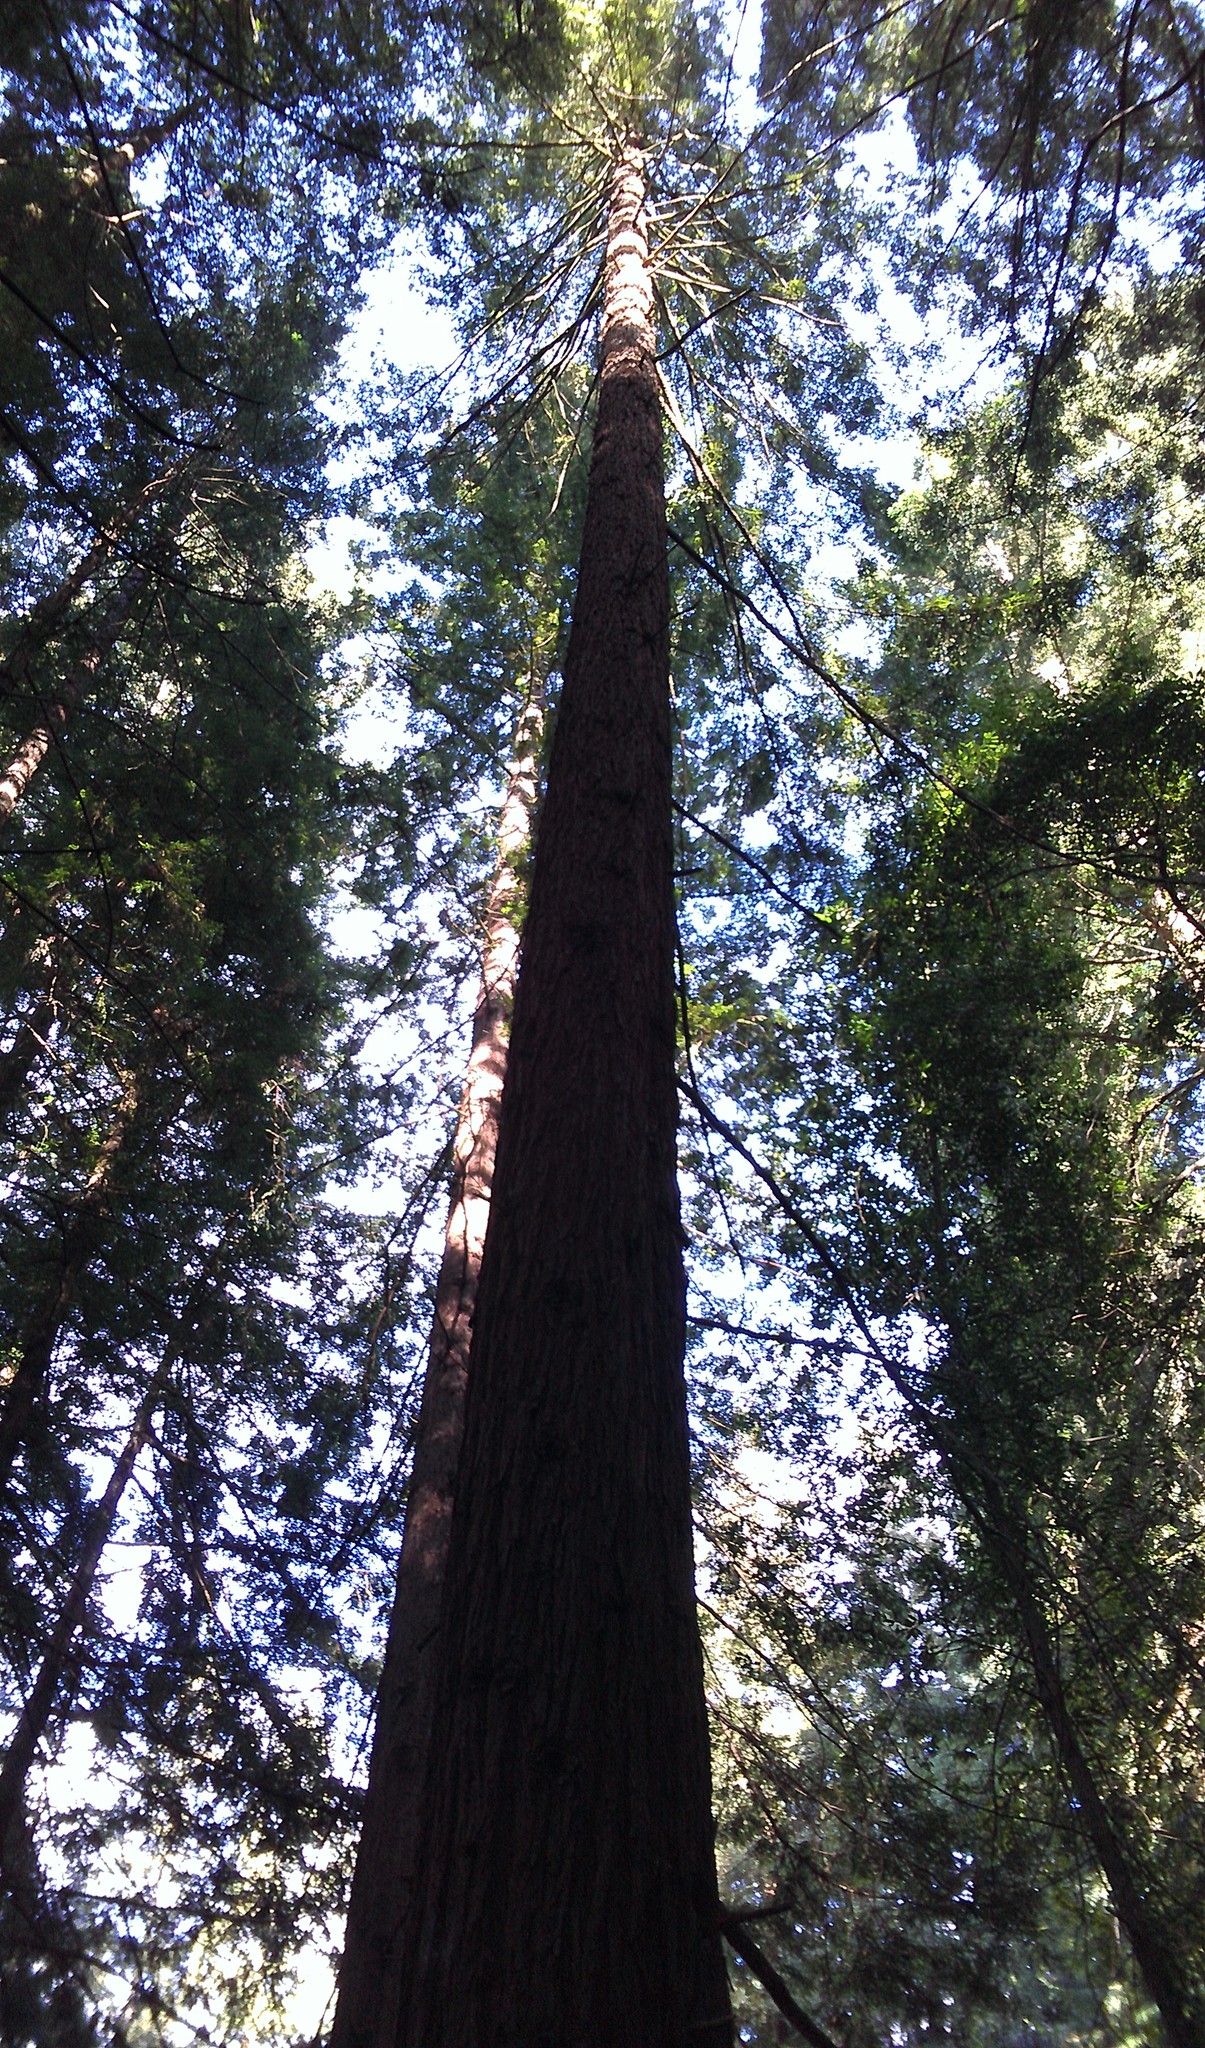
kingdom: Plantae
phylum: Tracheophyta
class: Pinopsida
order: Pinales
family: Cupressaceae
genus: Sequoia
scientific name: Sequoia sempervirens
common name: Coast redwood
